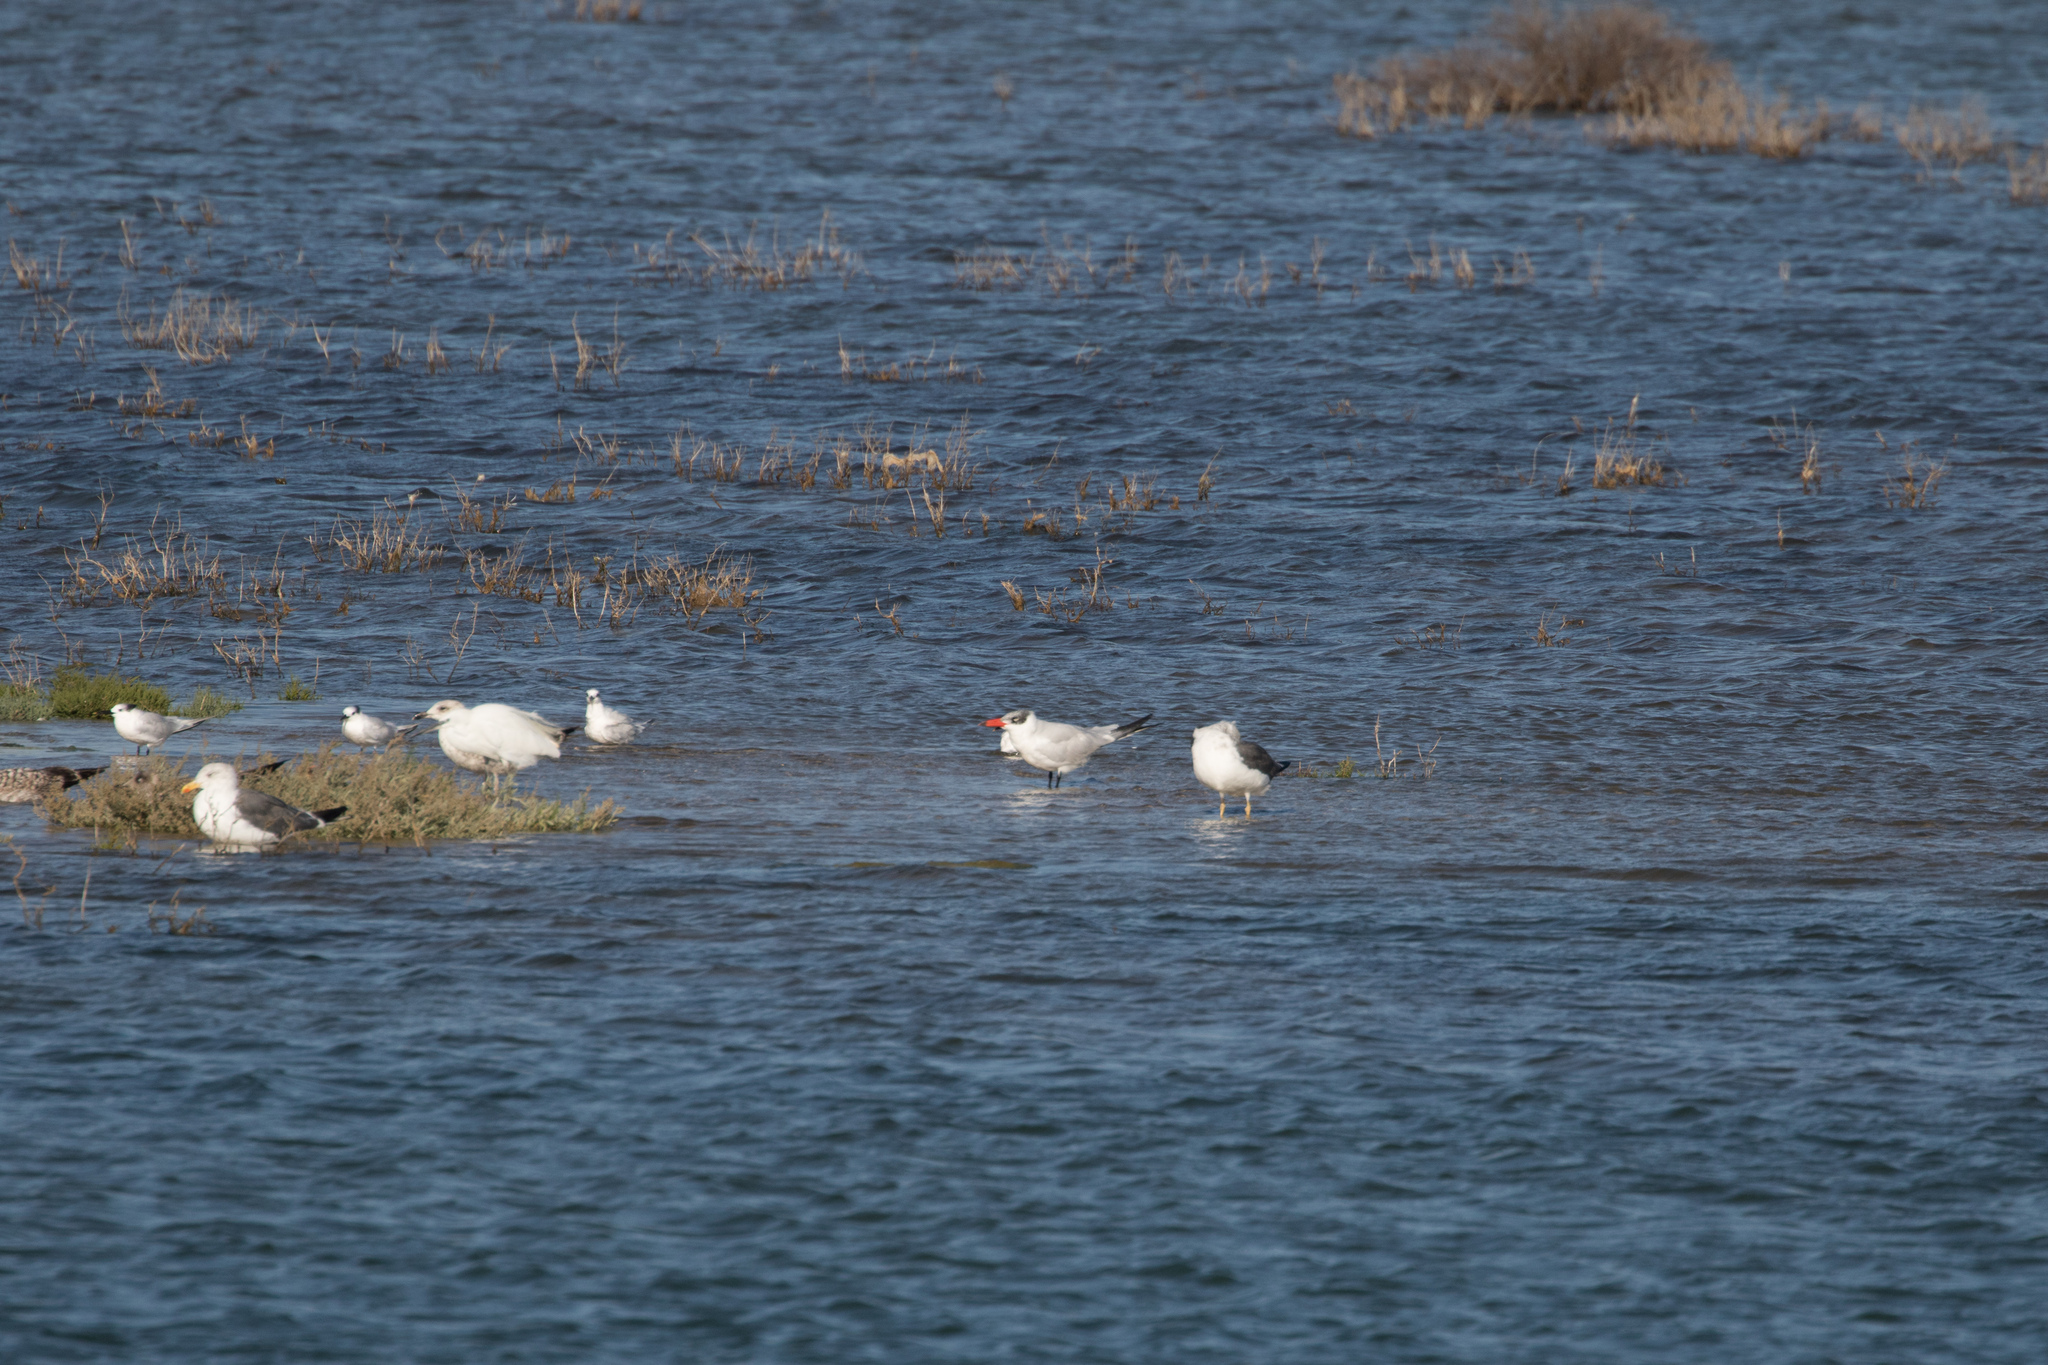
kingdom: Animalia
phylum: Chordata
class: Aves
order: Charadriiformes
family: Laridae
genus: Hydroprogne
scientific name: Hydroprogne caspia
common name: Caspian tern
